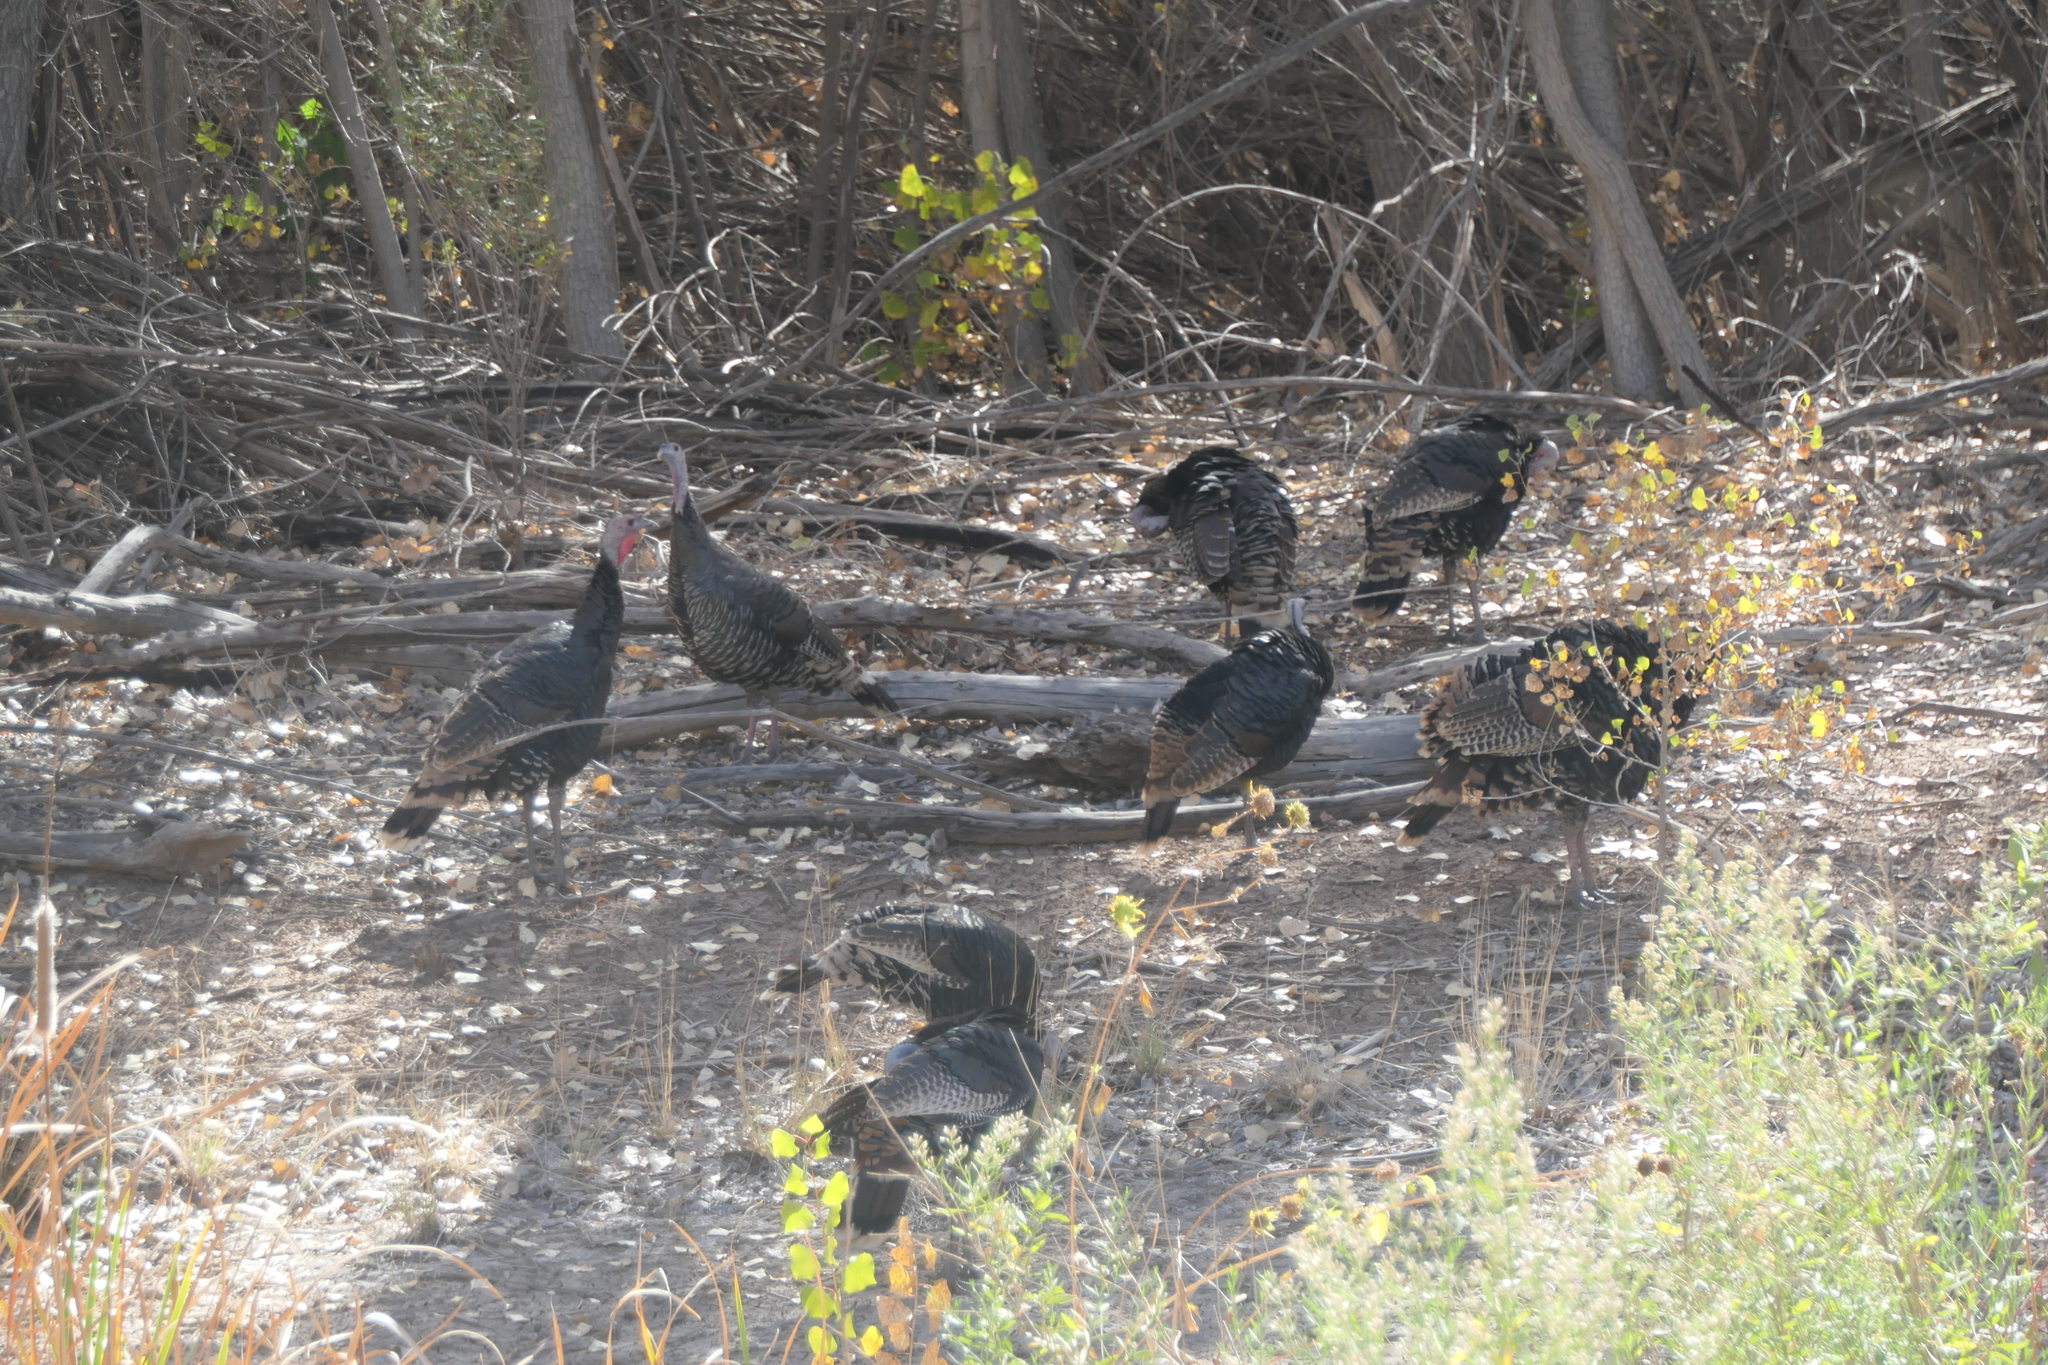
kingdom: Animalia
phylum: Chordata
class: Aves
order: Galliformes
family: Phasianidae
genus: Meleagris
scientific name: Meleagris gallopavo
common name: Wild turkey
